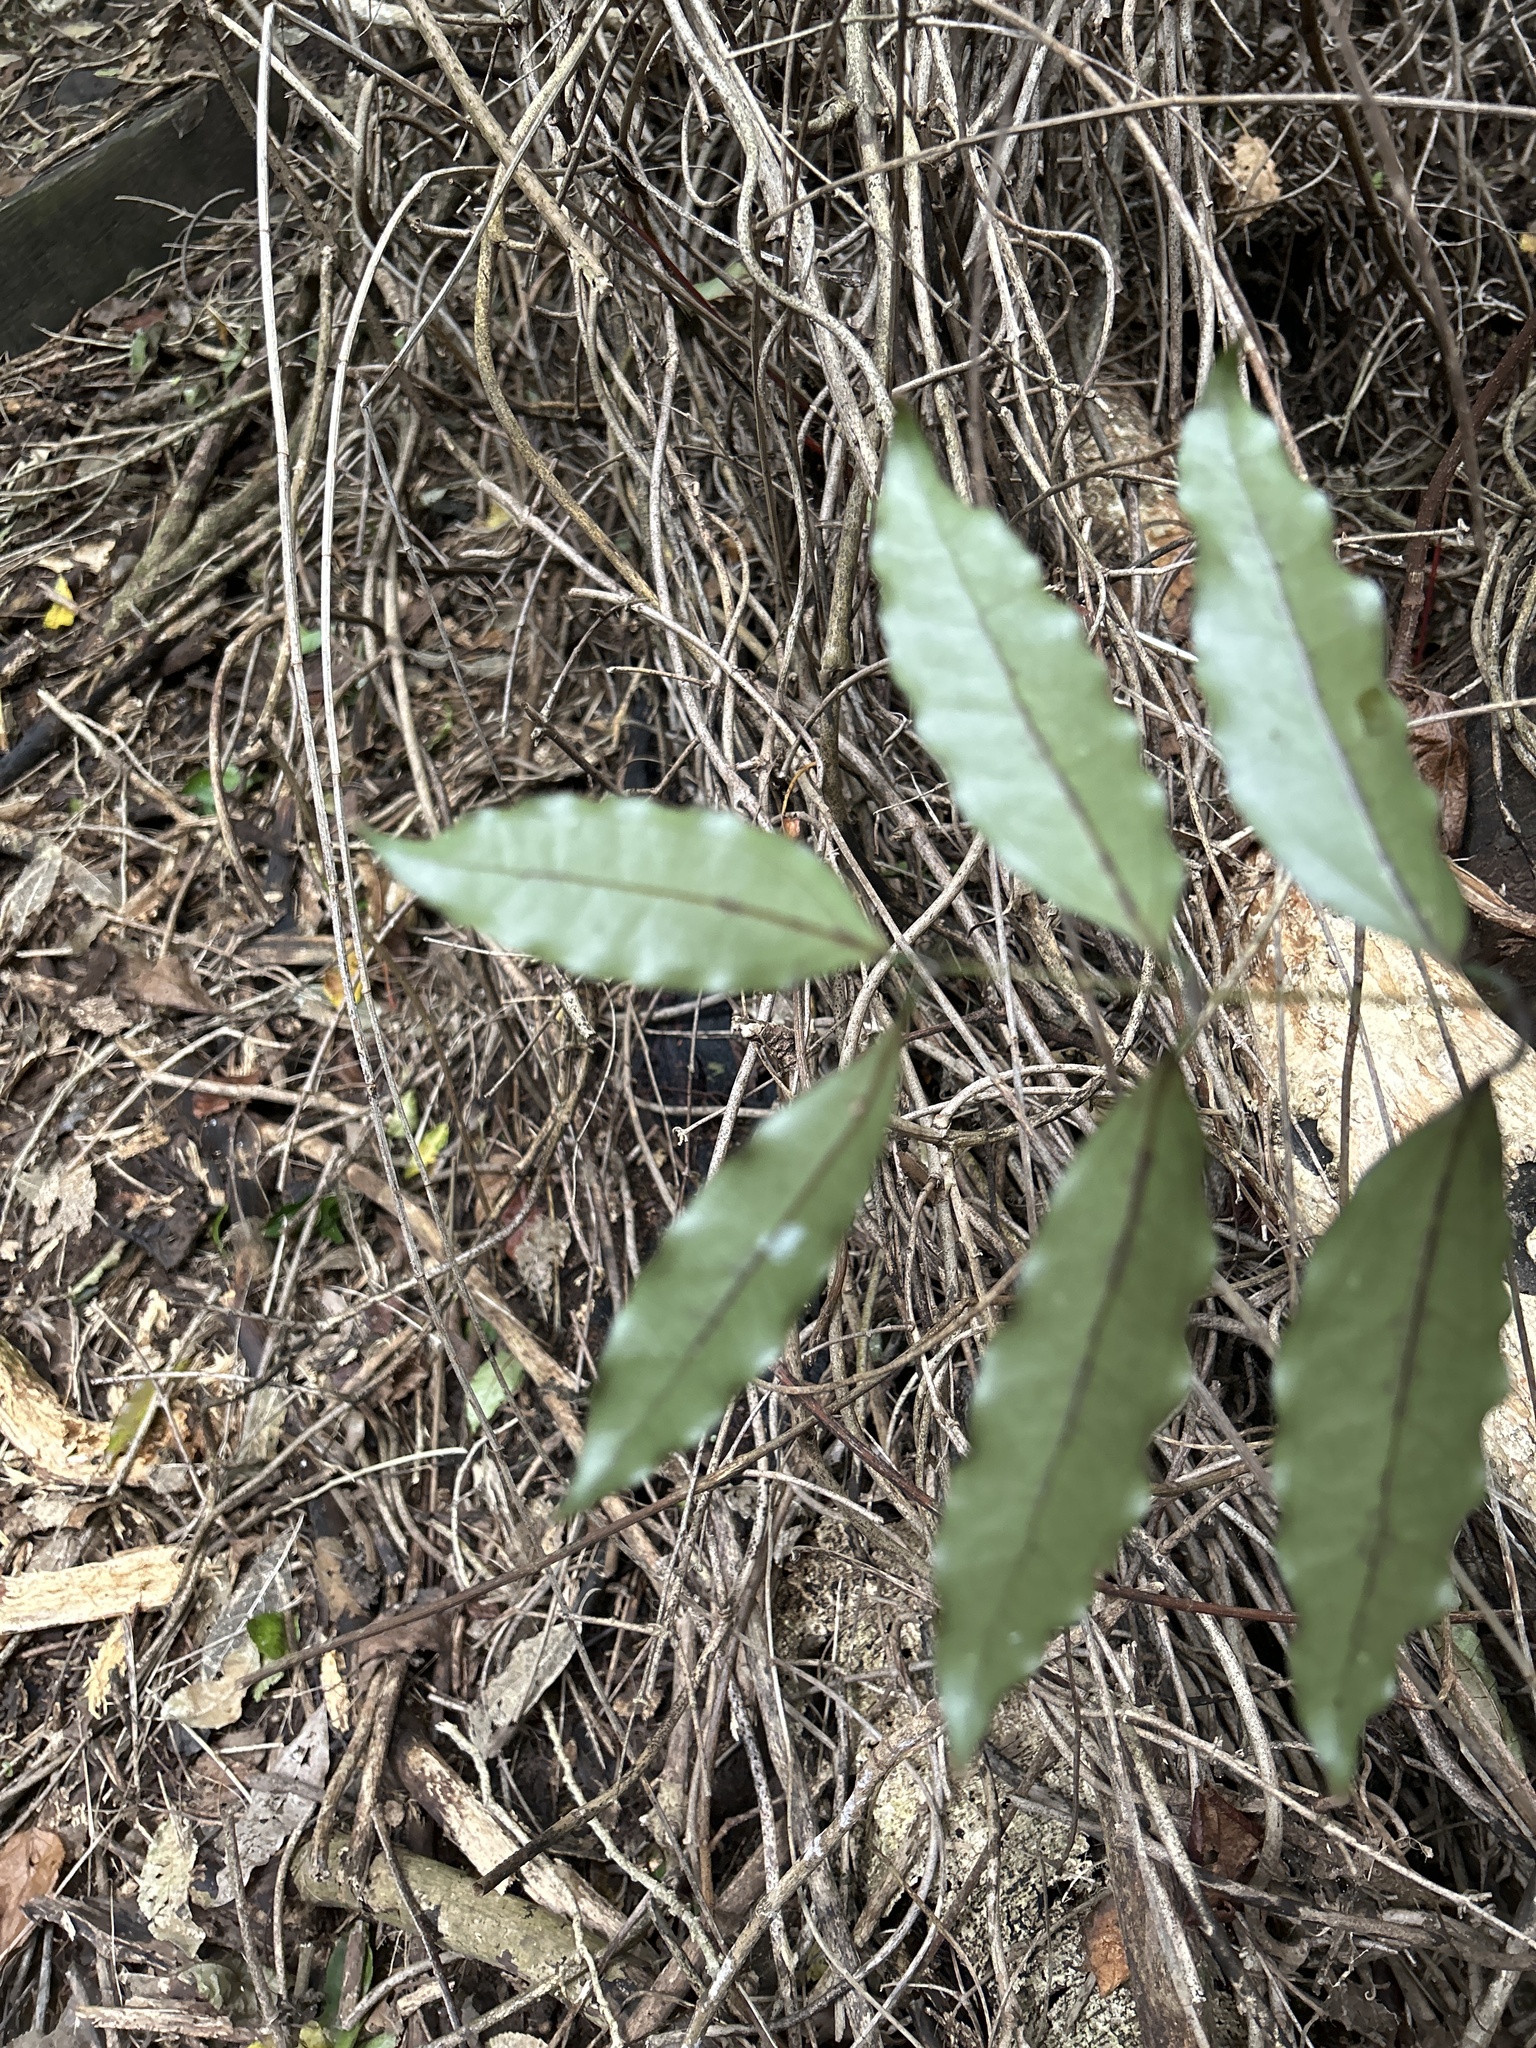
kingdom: Plantae
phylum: Tracheophyta
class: Liliopsida
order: Liliales
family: Ripogonaceae
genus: Ripogonum
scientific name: Ripogonum scandens
